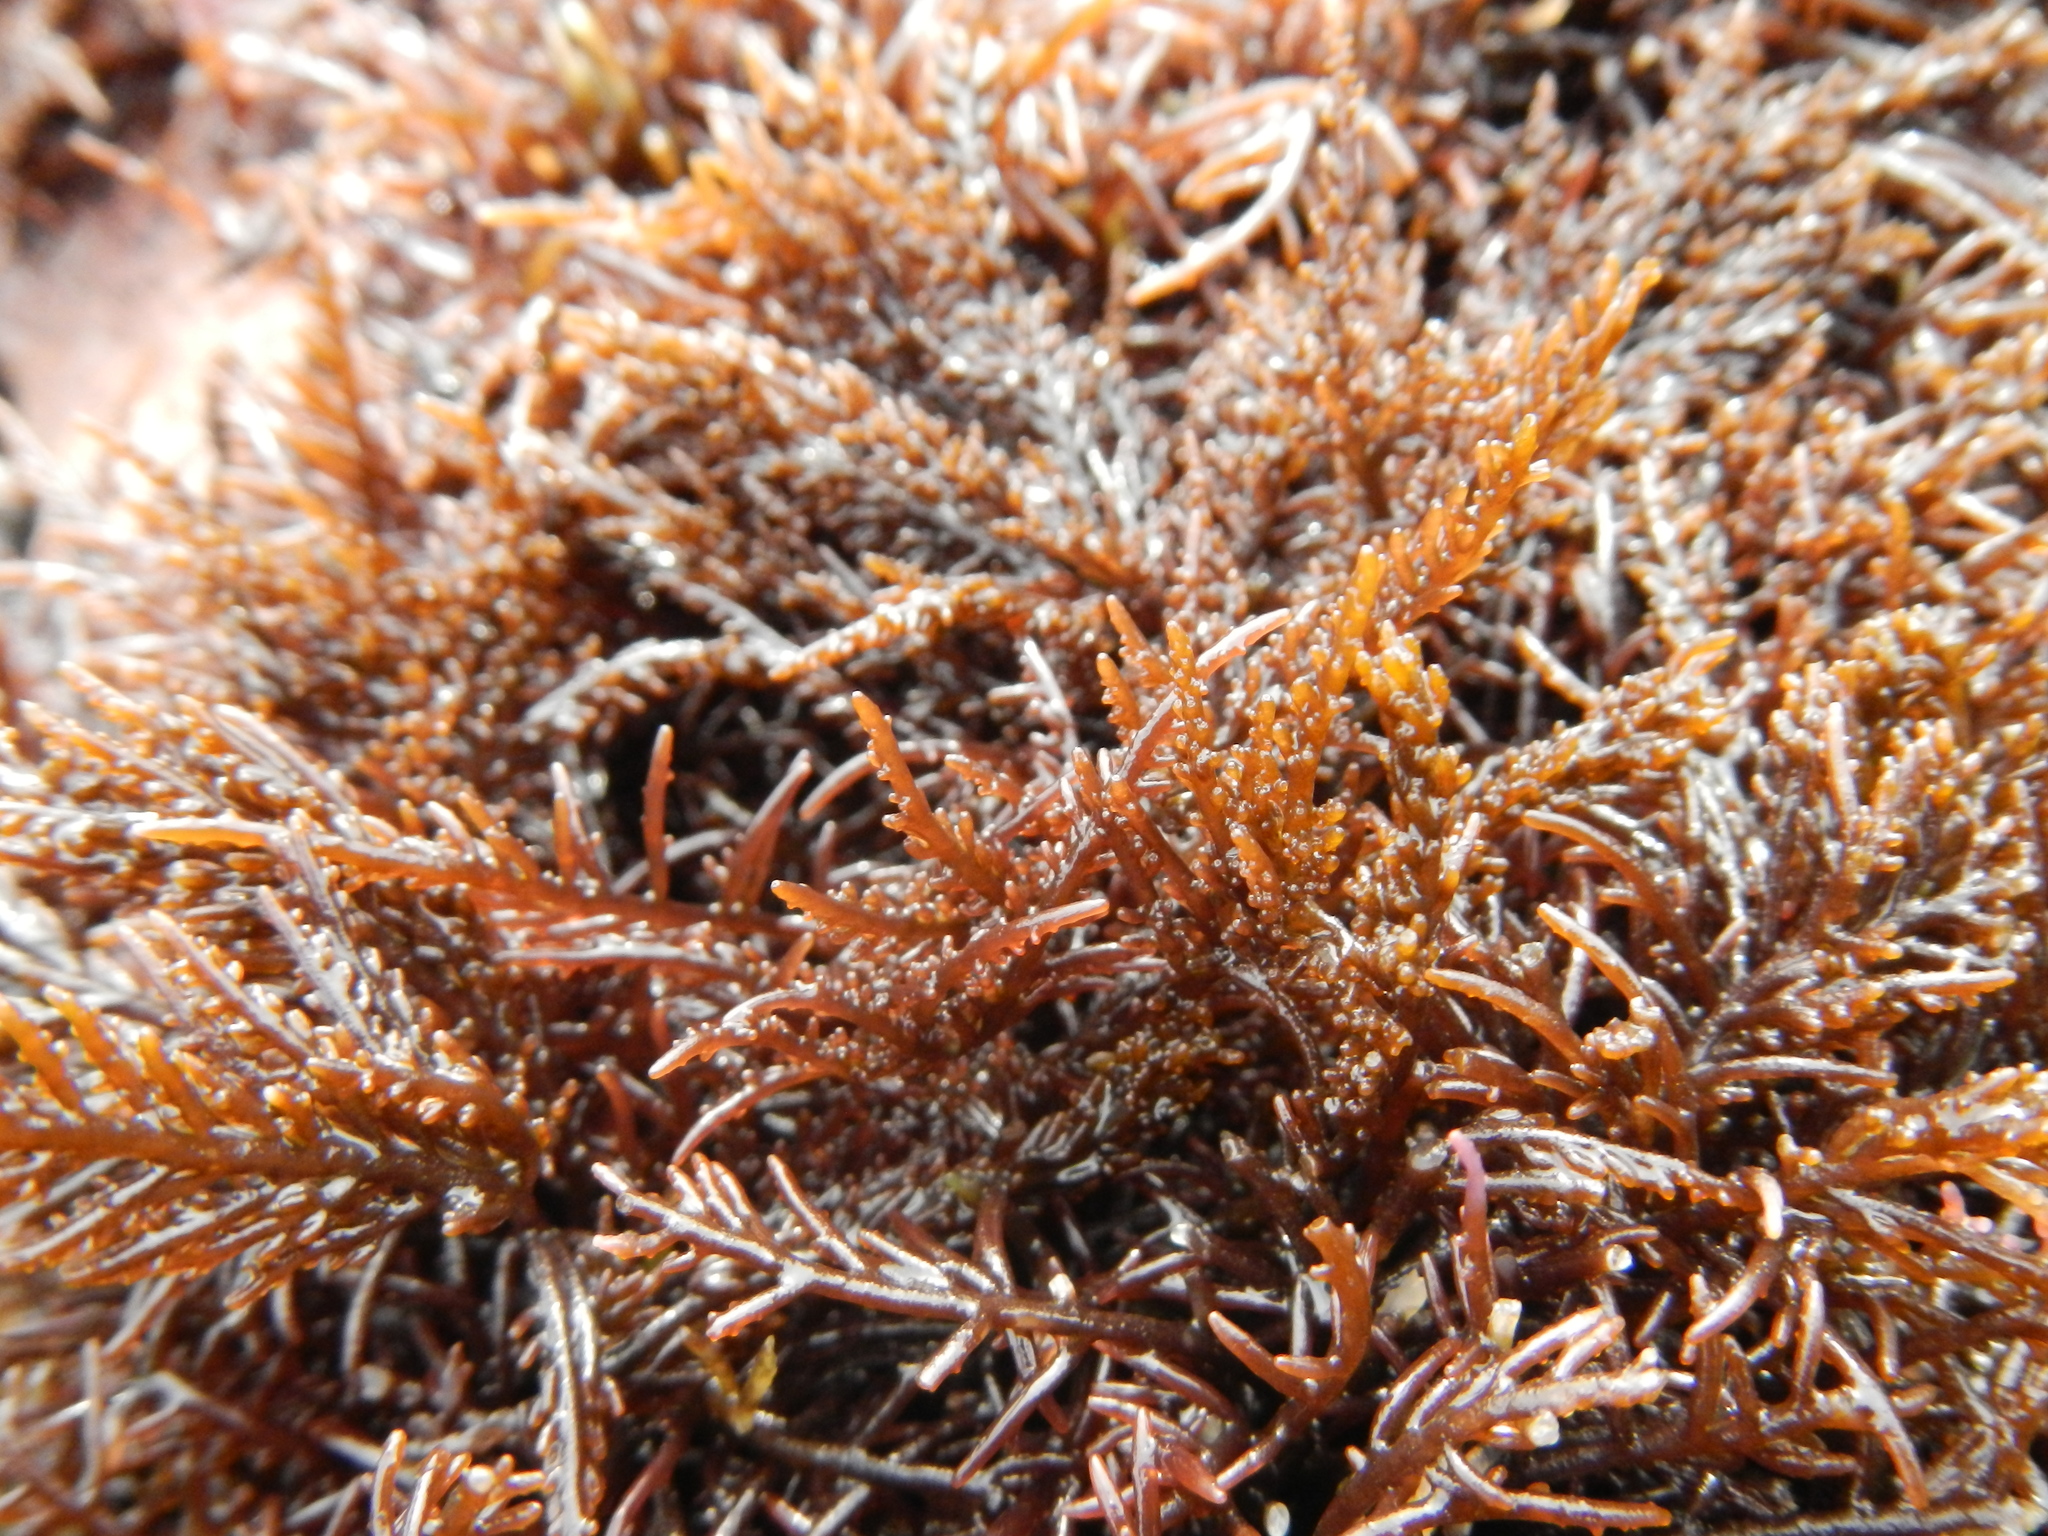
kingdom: Plantae
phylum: Rhodophyta
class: Florideophyceae
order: Ceramiales
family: Rhodomelaceae
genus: Chondria
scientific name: Chondria
